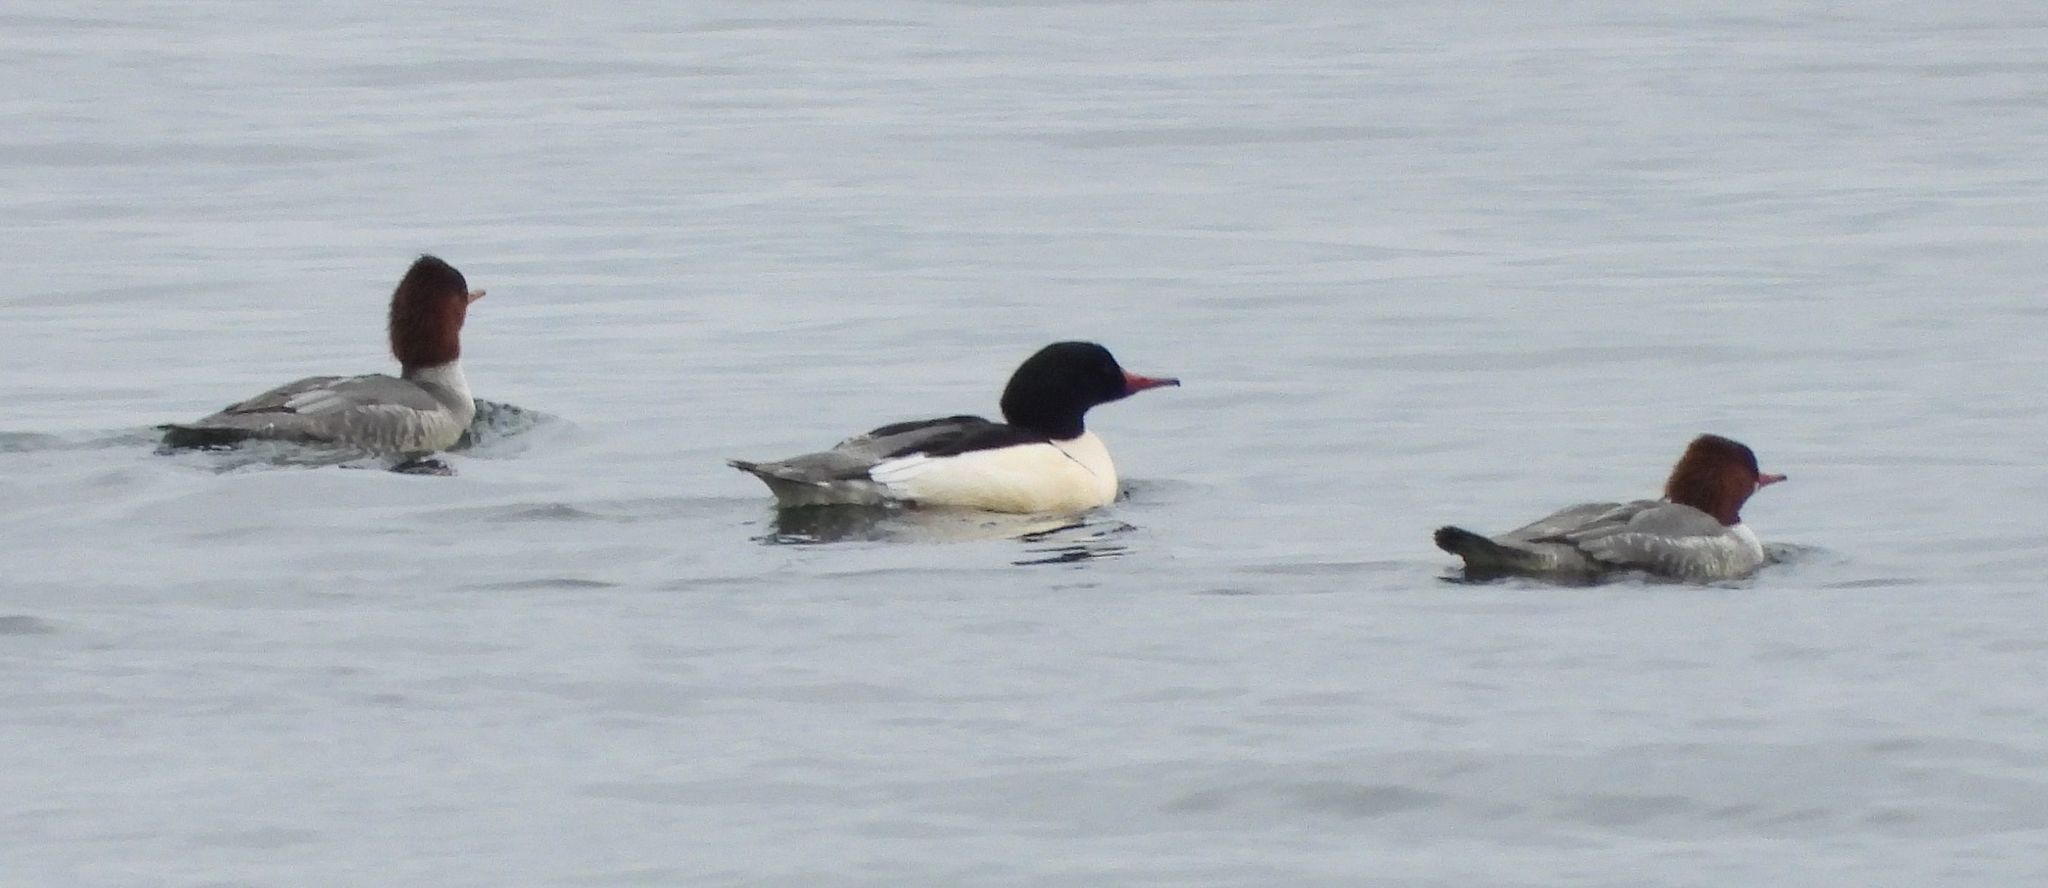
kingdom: Animalia
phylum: Chordata
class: Aves
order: Anseriformes
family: Anatidae
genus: Mergus
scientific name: Mergus merganser
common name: Common merganser
